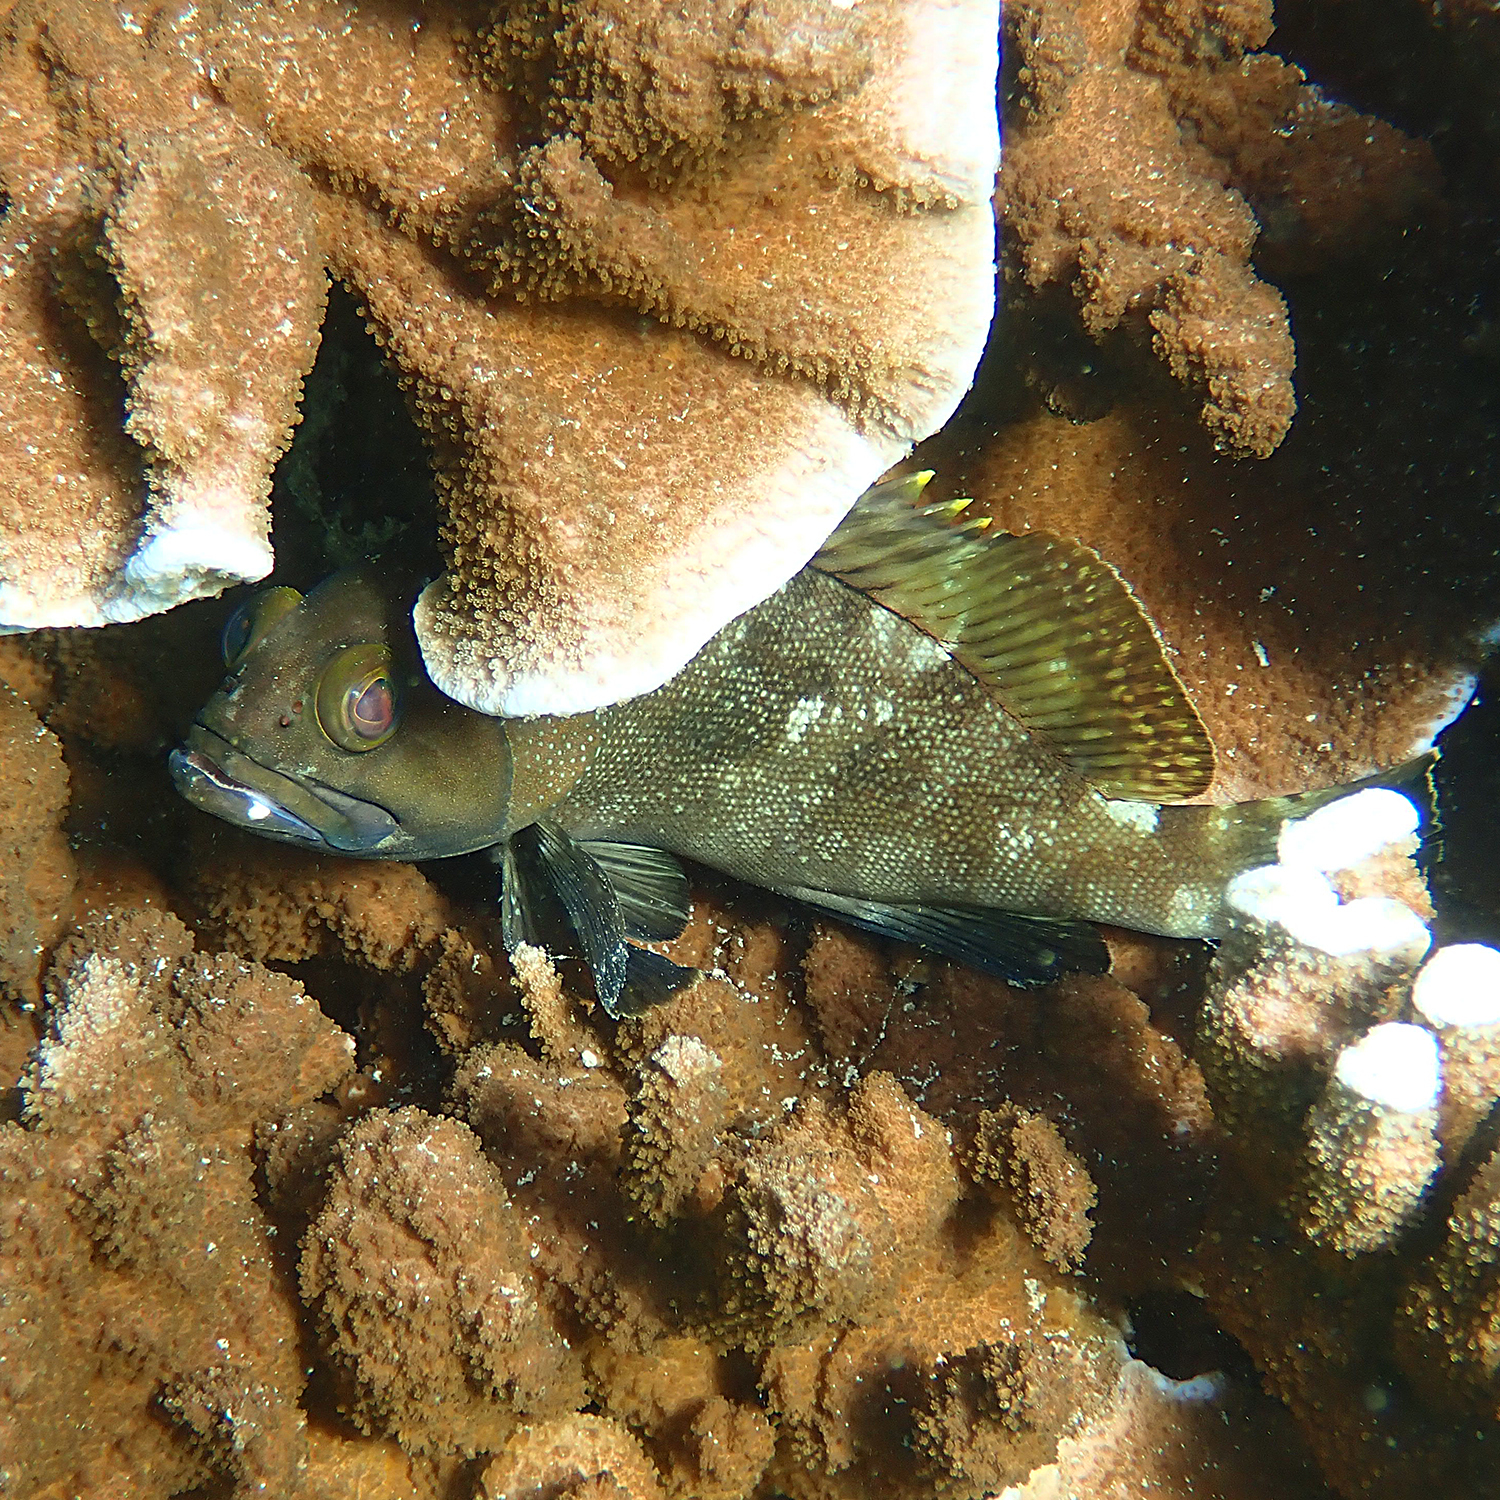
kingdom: Animalia
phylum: Chordata
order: Perciformes
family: Serranidae
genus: Epinephelus
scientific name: Epinephelus rivulatus
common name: Halfmoon grouper
